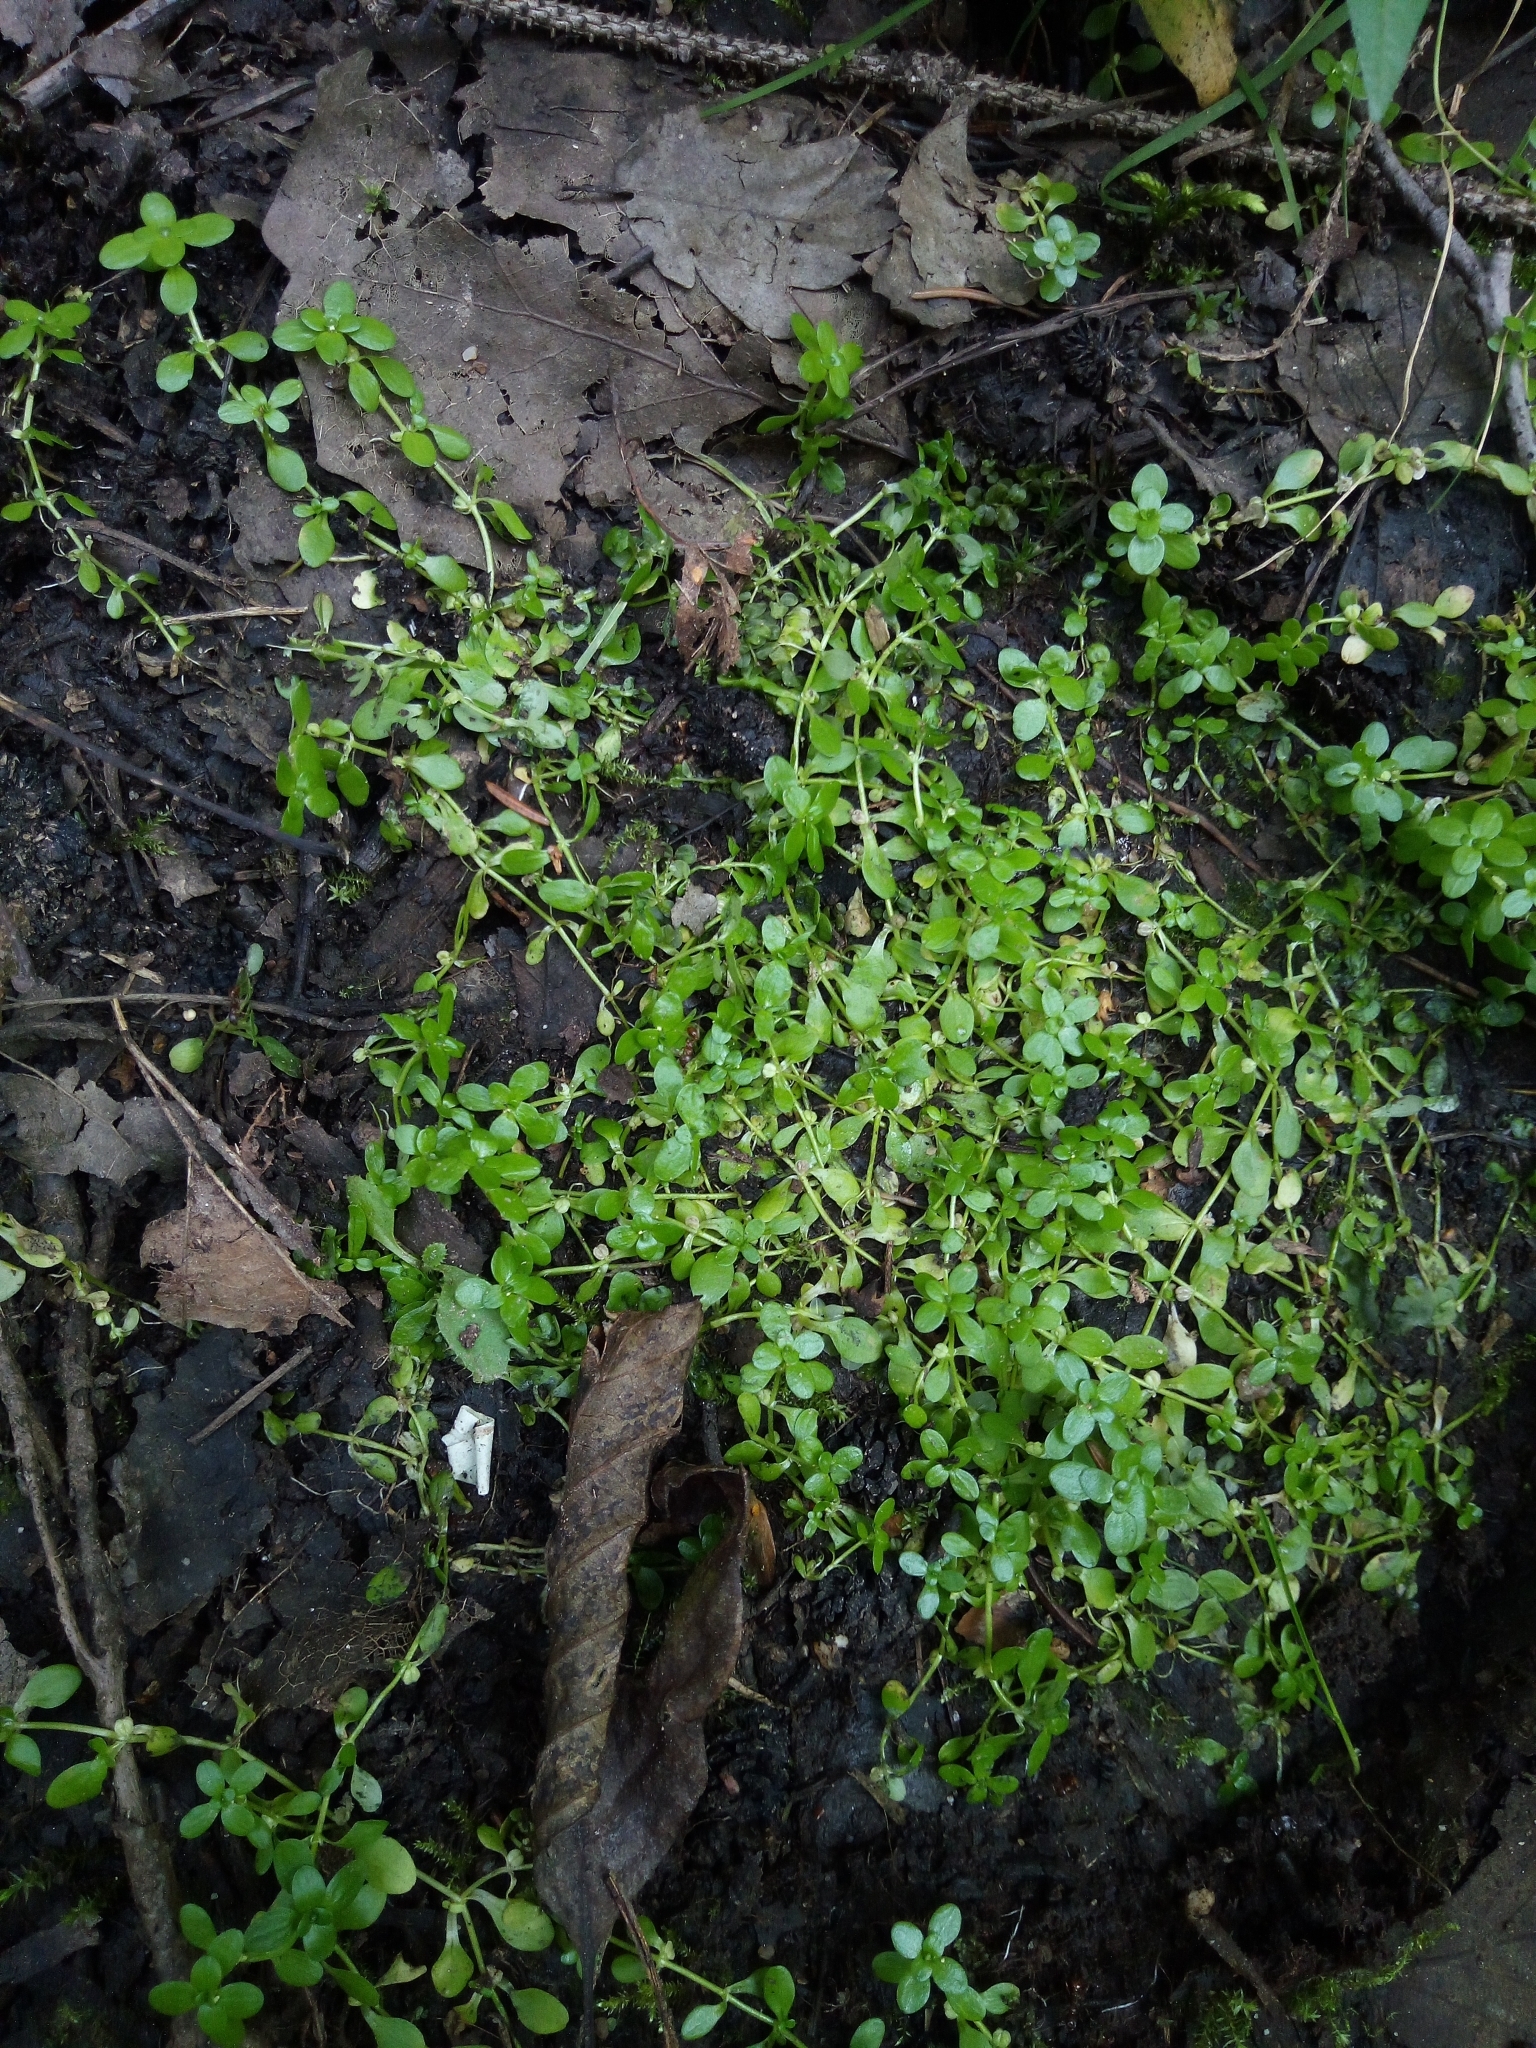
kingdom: Plantae
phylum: Tracheophyta
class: Magnoliopsida
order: Lamiales
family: Plantaginaceae
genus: Callitriche
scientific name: Callitriche stagnalis
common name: Common water-starwort
